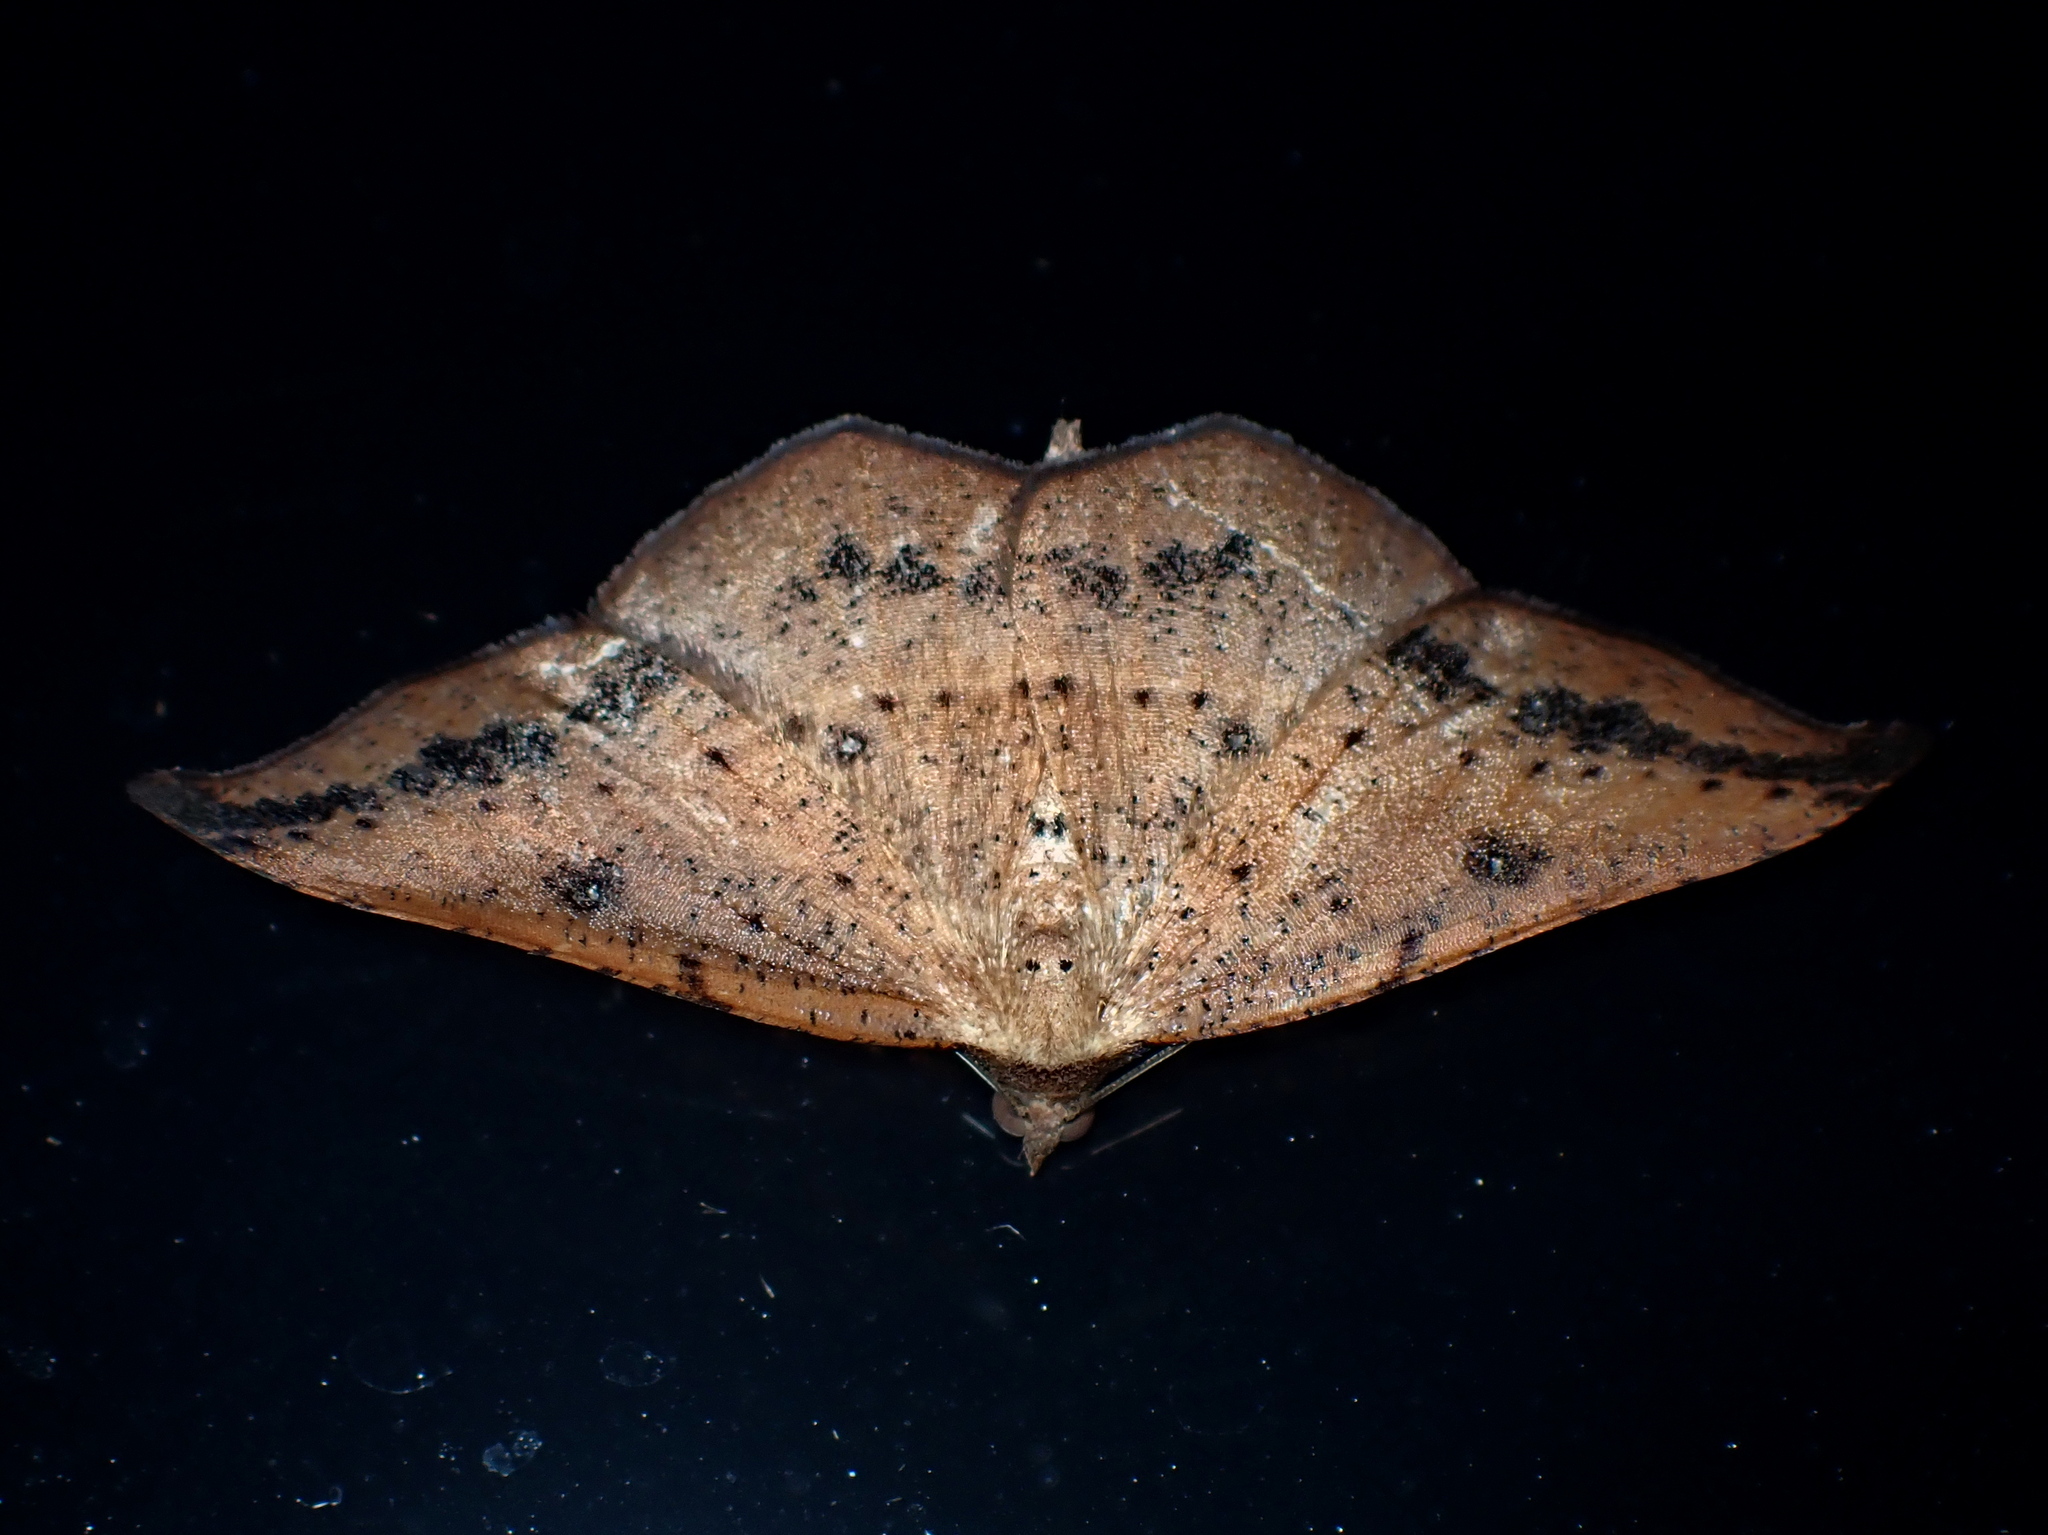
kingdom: Animalia
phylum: Arthropoda
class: Insecta
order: Lepidoptera
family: Geometridae
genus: Sarisa
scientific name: Sarisa muriferata
